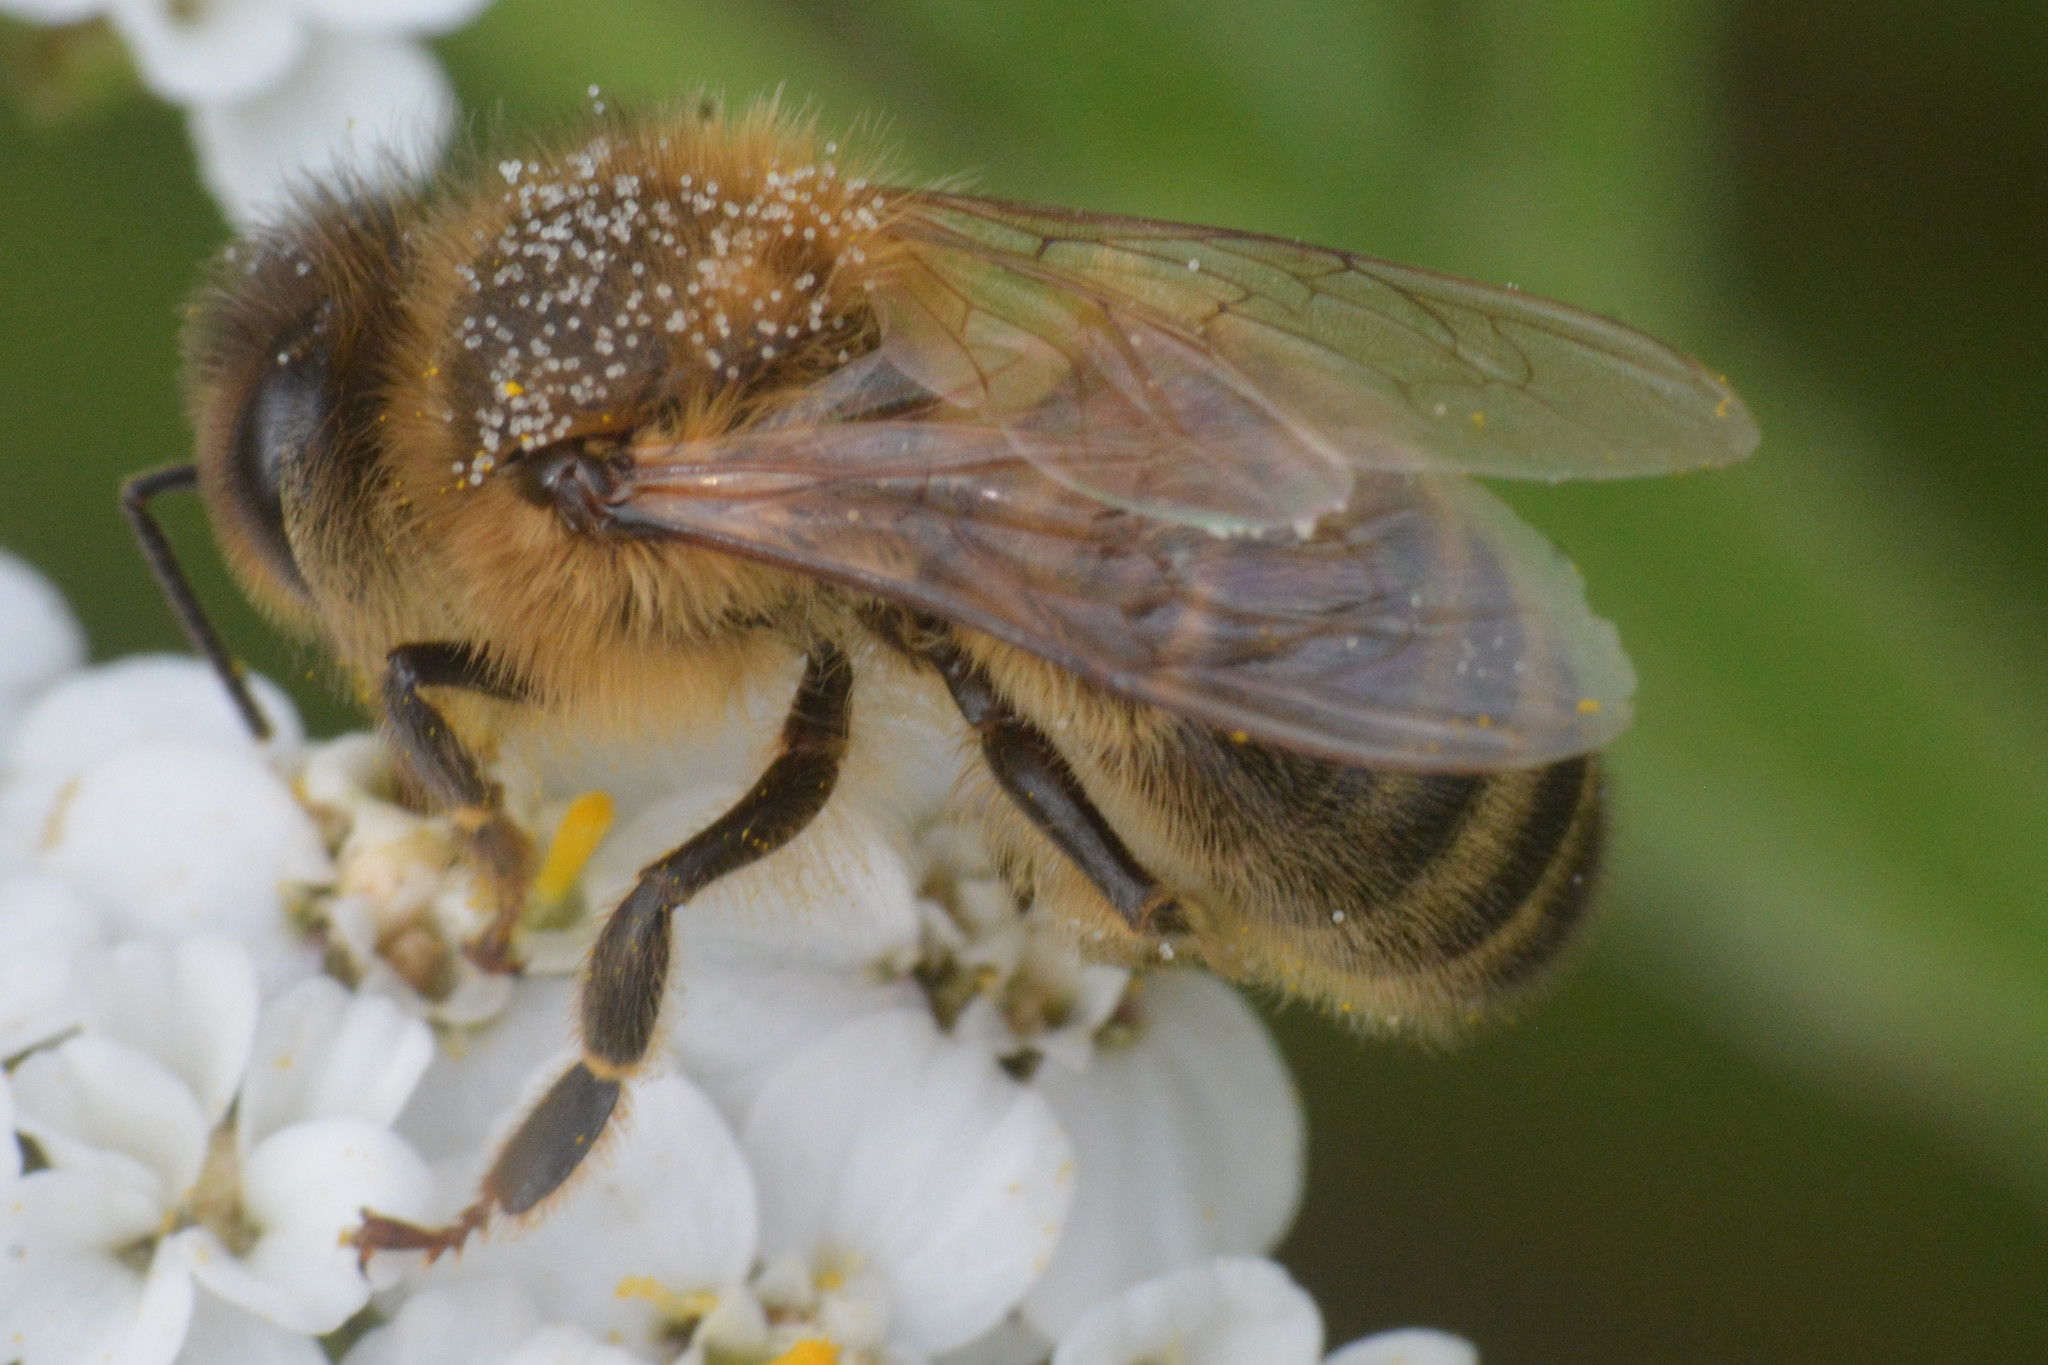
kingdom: Animalia
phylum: Arthropoda
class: Insecta
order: Hymenoptera
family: Apidae
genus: Apis
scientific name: Apis mellifera
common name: Honey bee
